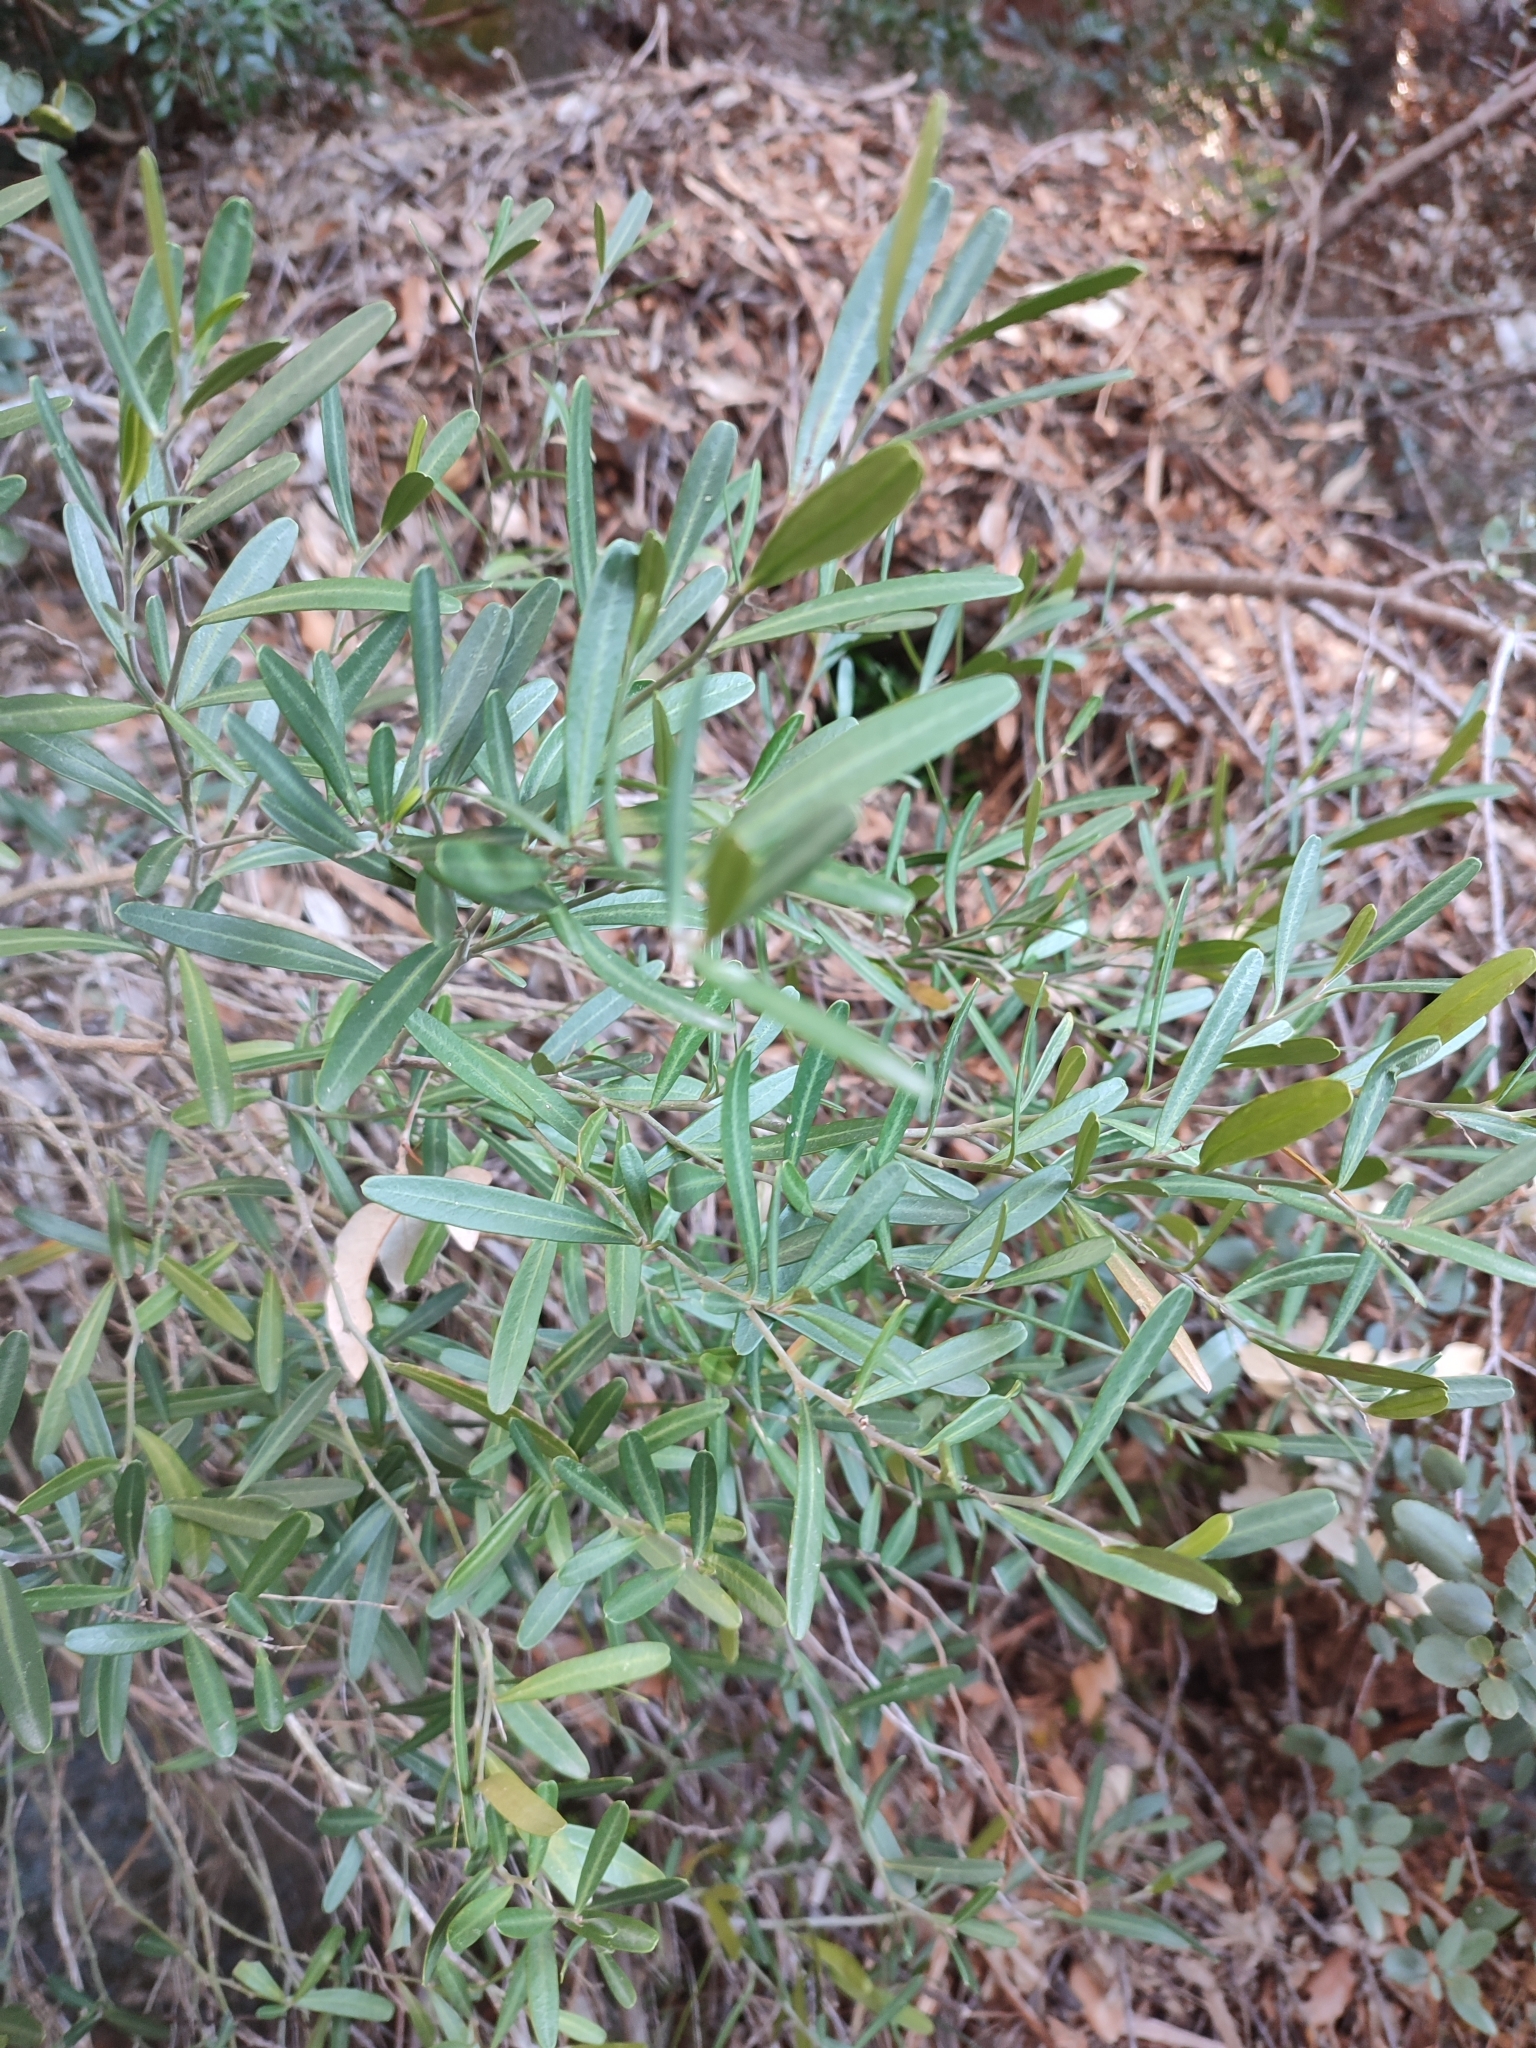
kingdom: Plantae
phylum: Tracheophyta
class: Magnoliopsida
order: Sapindales
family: Rutaceae
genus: Cneorum
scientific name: Cneorum tricoccon
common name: Spurge olive
